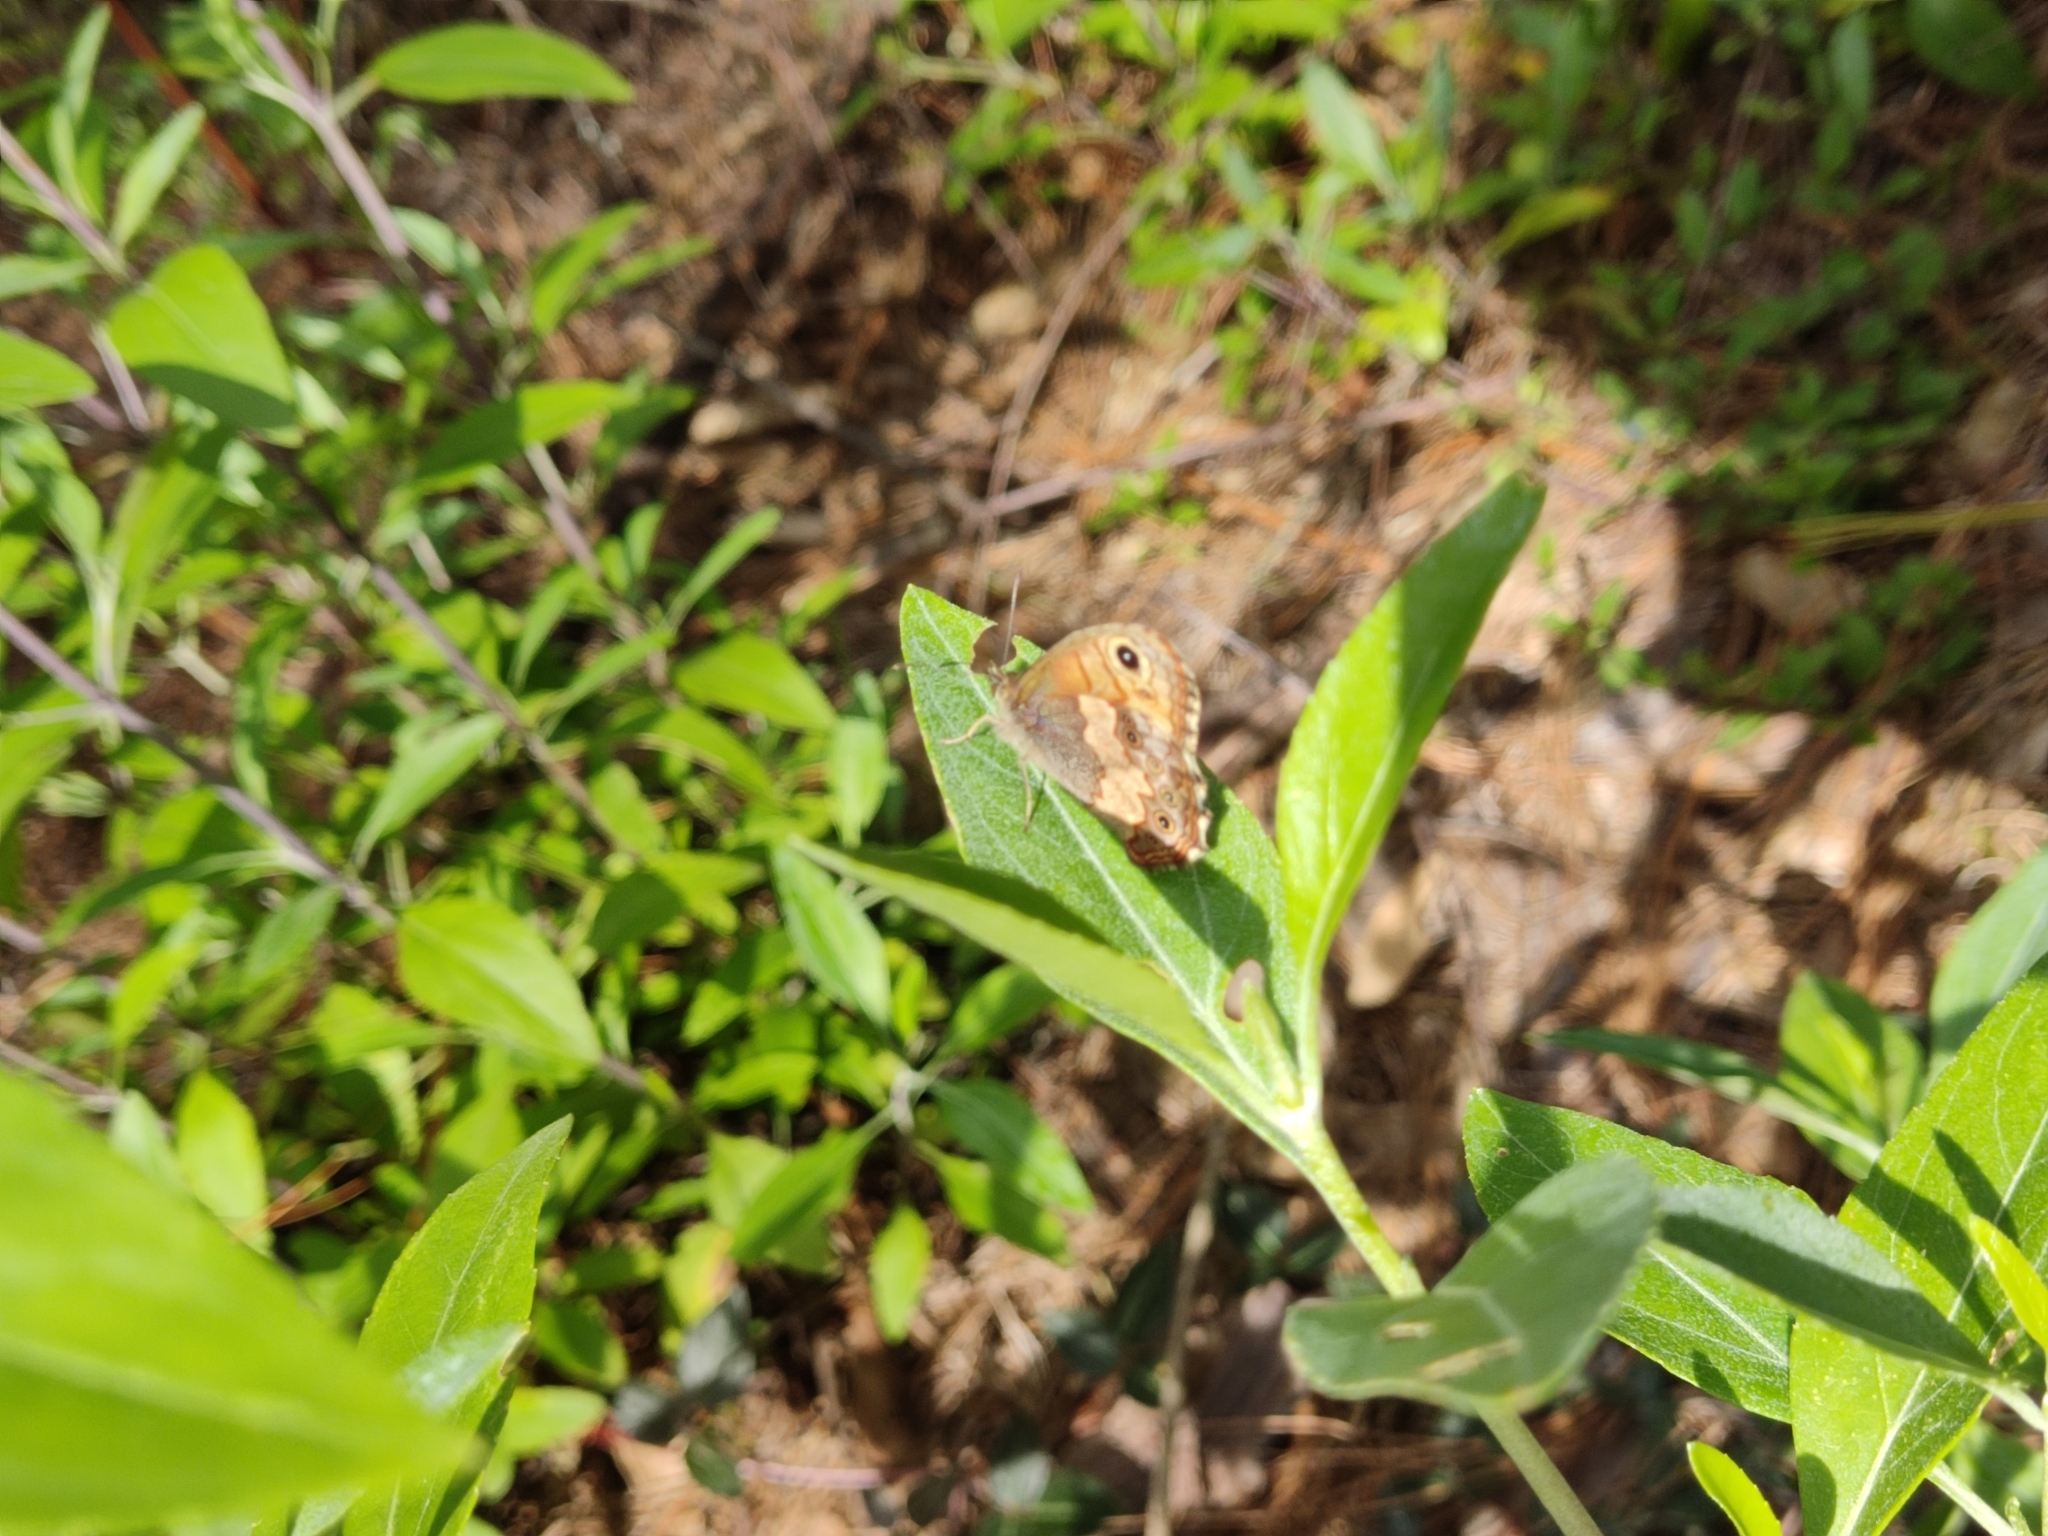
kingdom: Animalia
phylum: Arthropoda
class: Insecta
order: Lepidoptera
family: Nymphalidae
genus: Paramecera
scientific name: Paramecera xicaque
